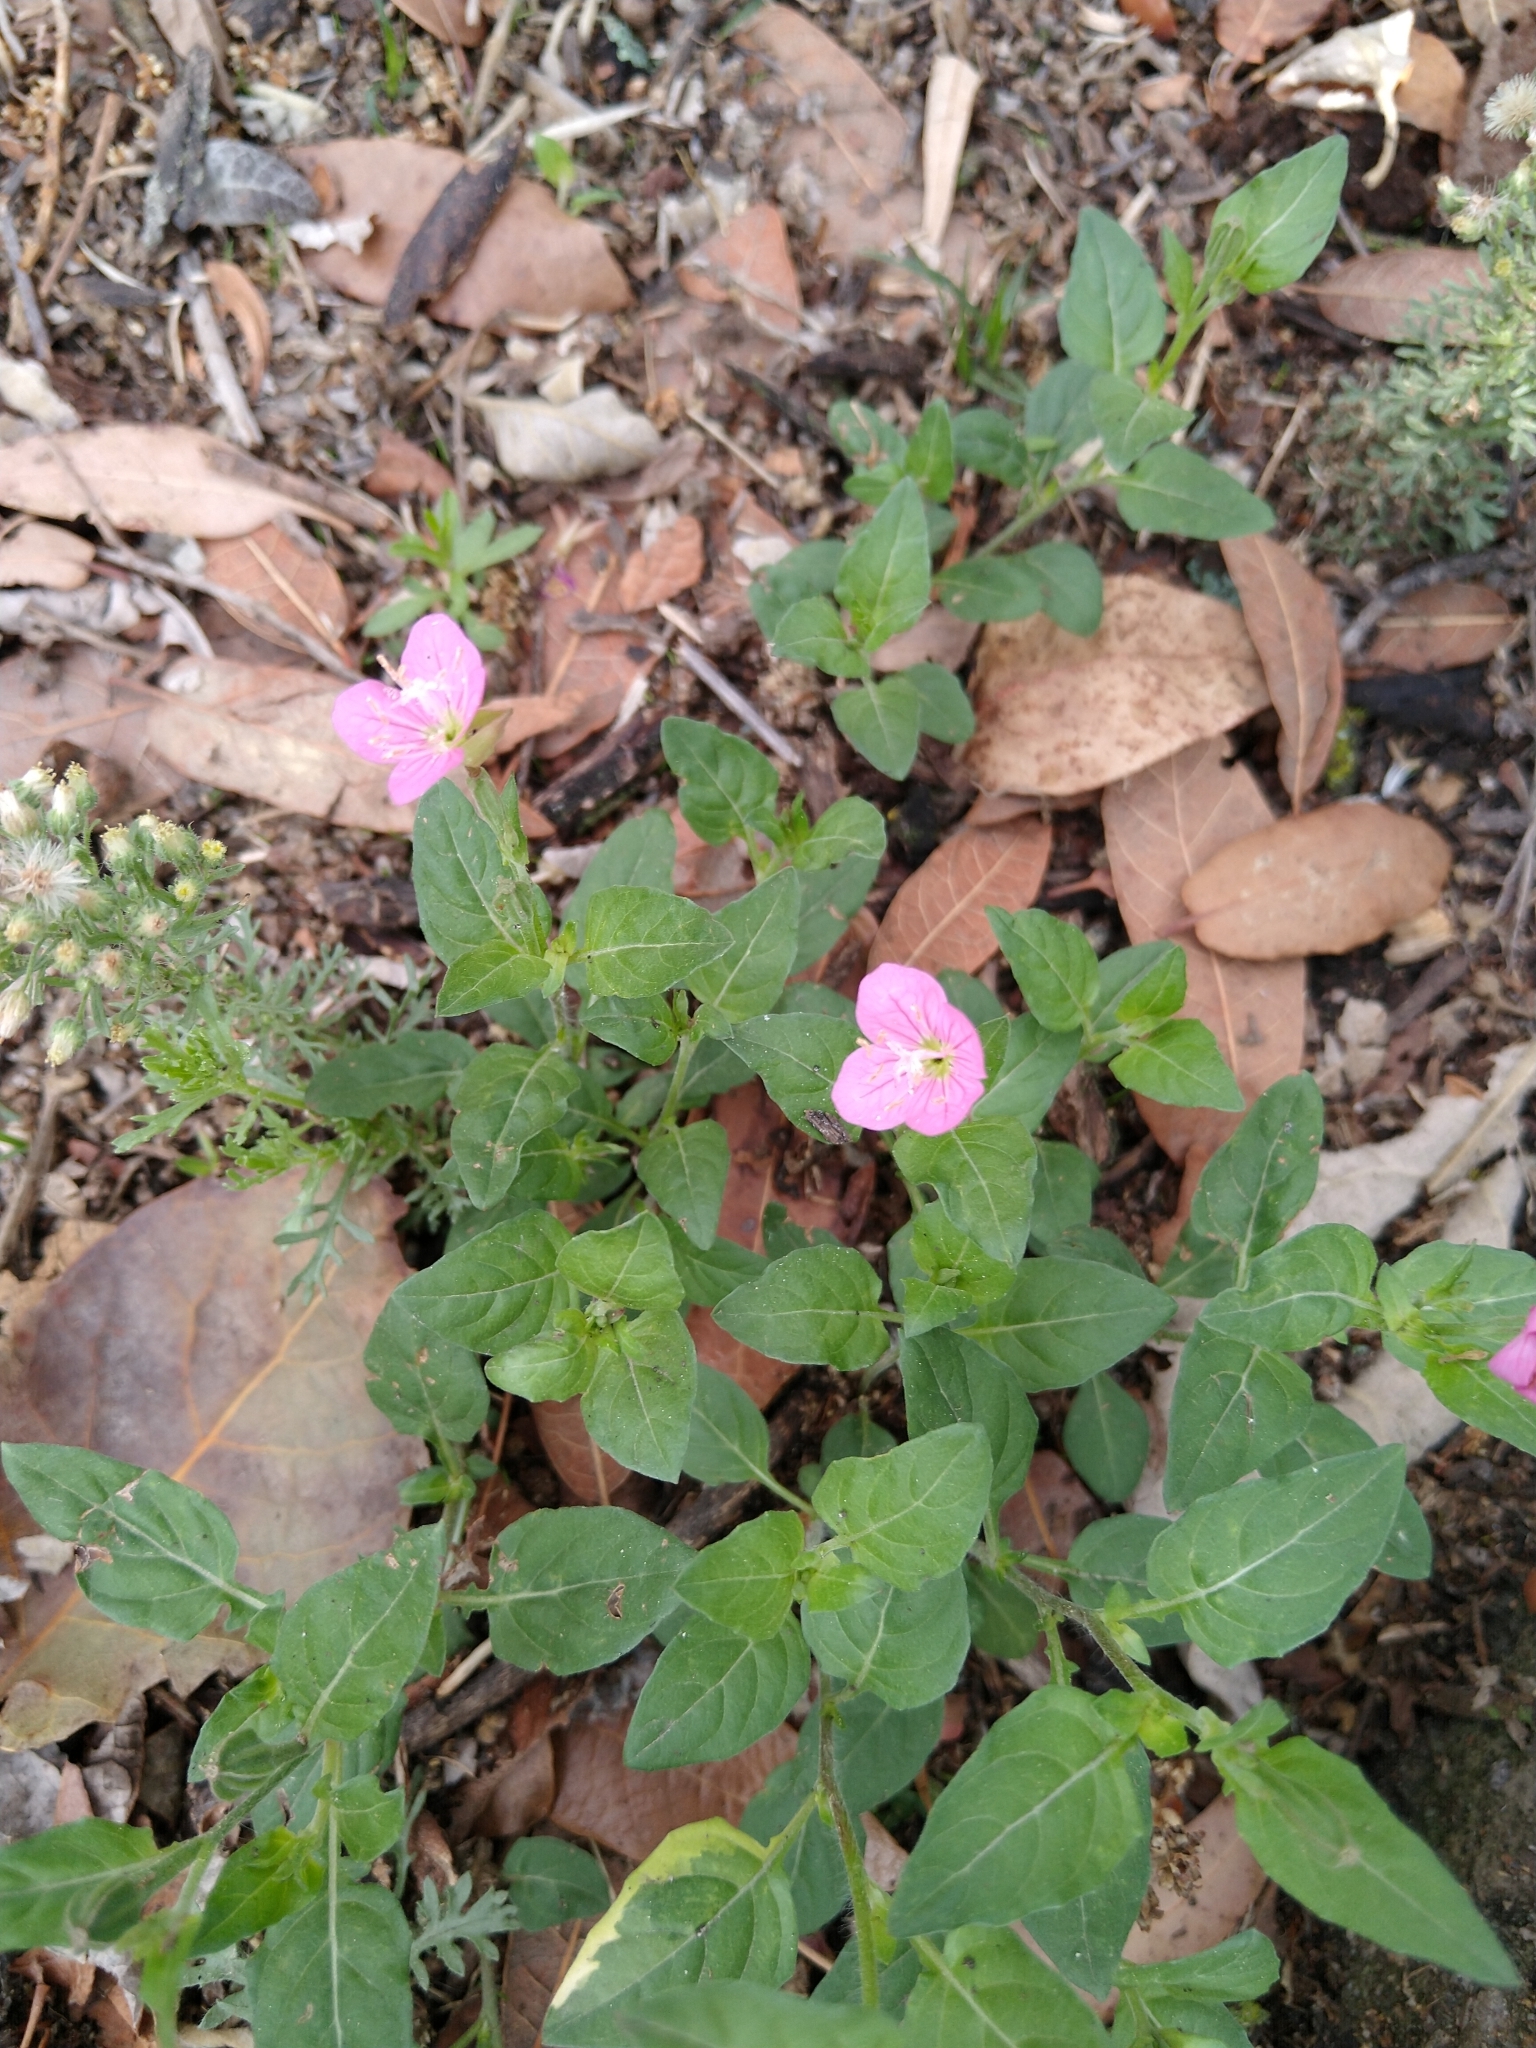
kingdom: Plantae
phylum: Tracheophyta
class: Magnoliopsida
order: Myrtales
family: Onagraceae
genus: Oenothera
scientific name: Oenothera rosea
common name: Rosy evening-primrose
